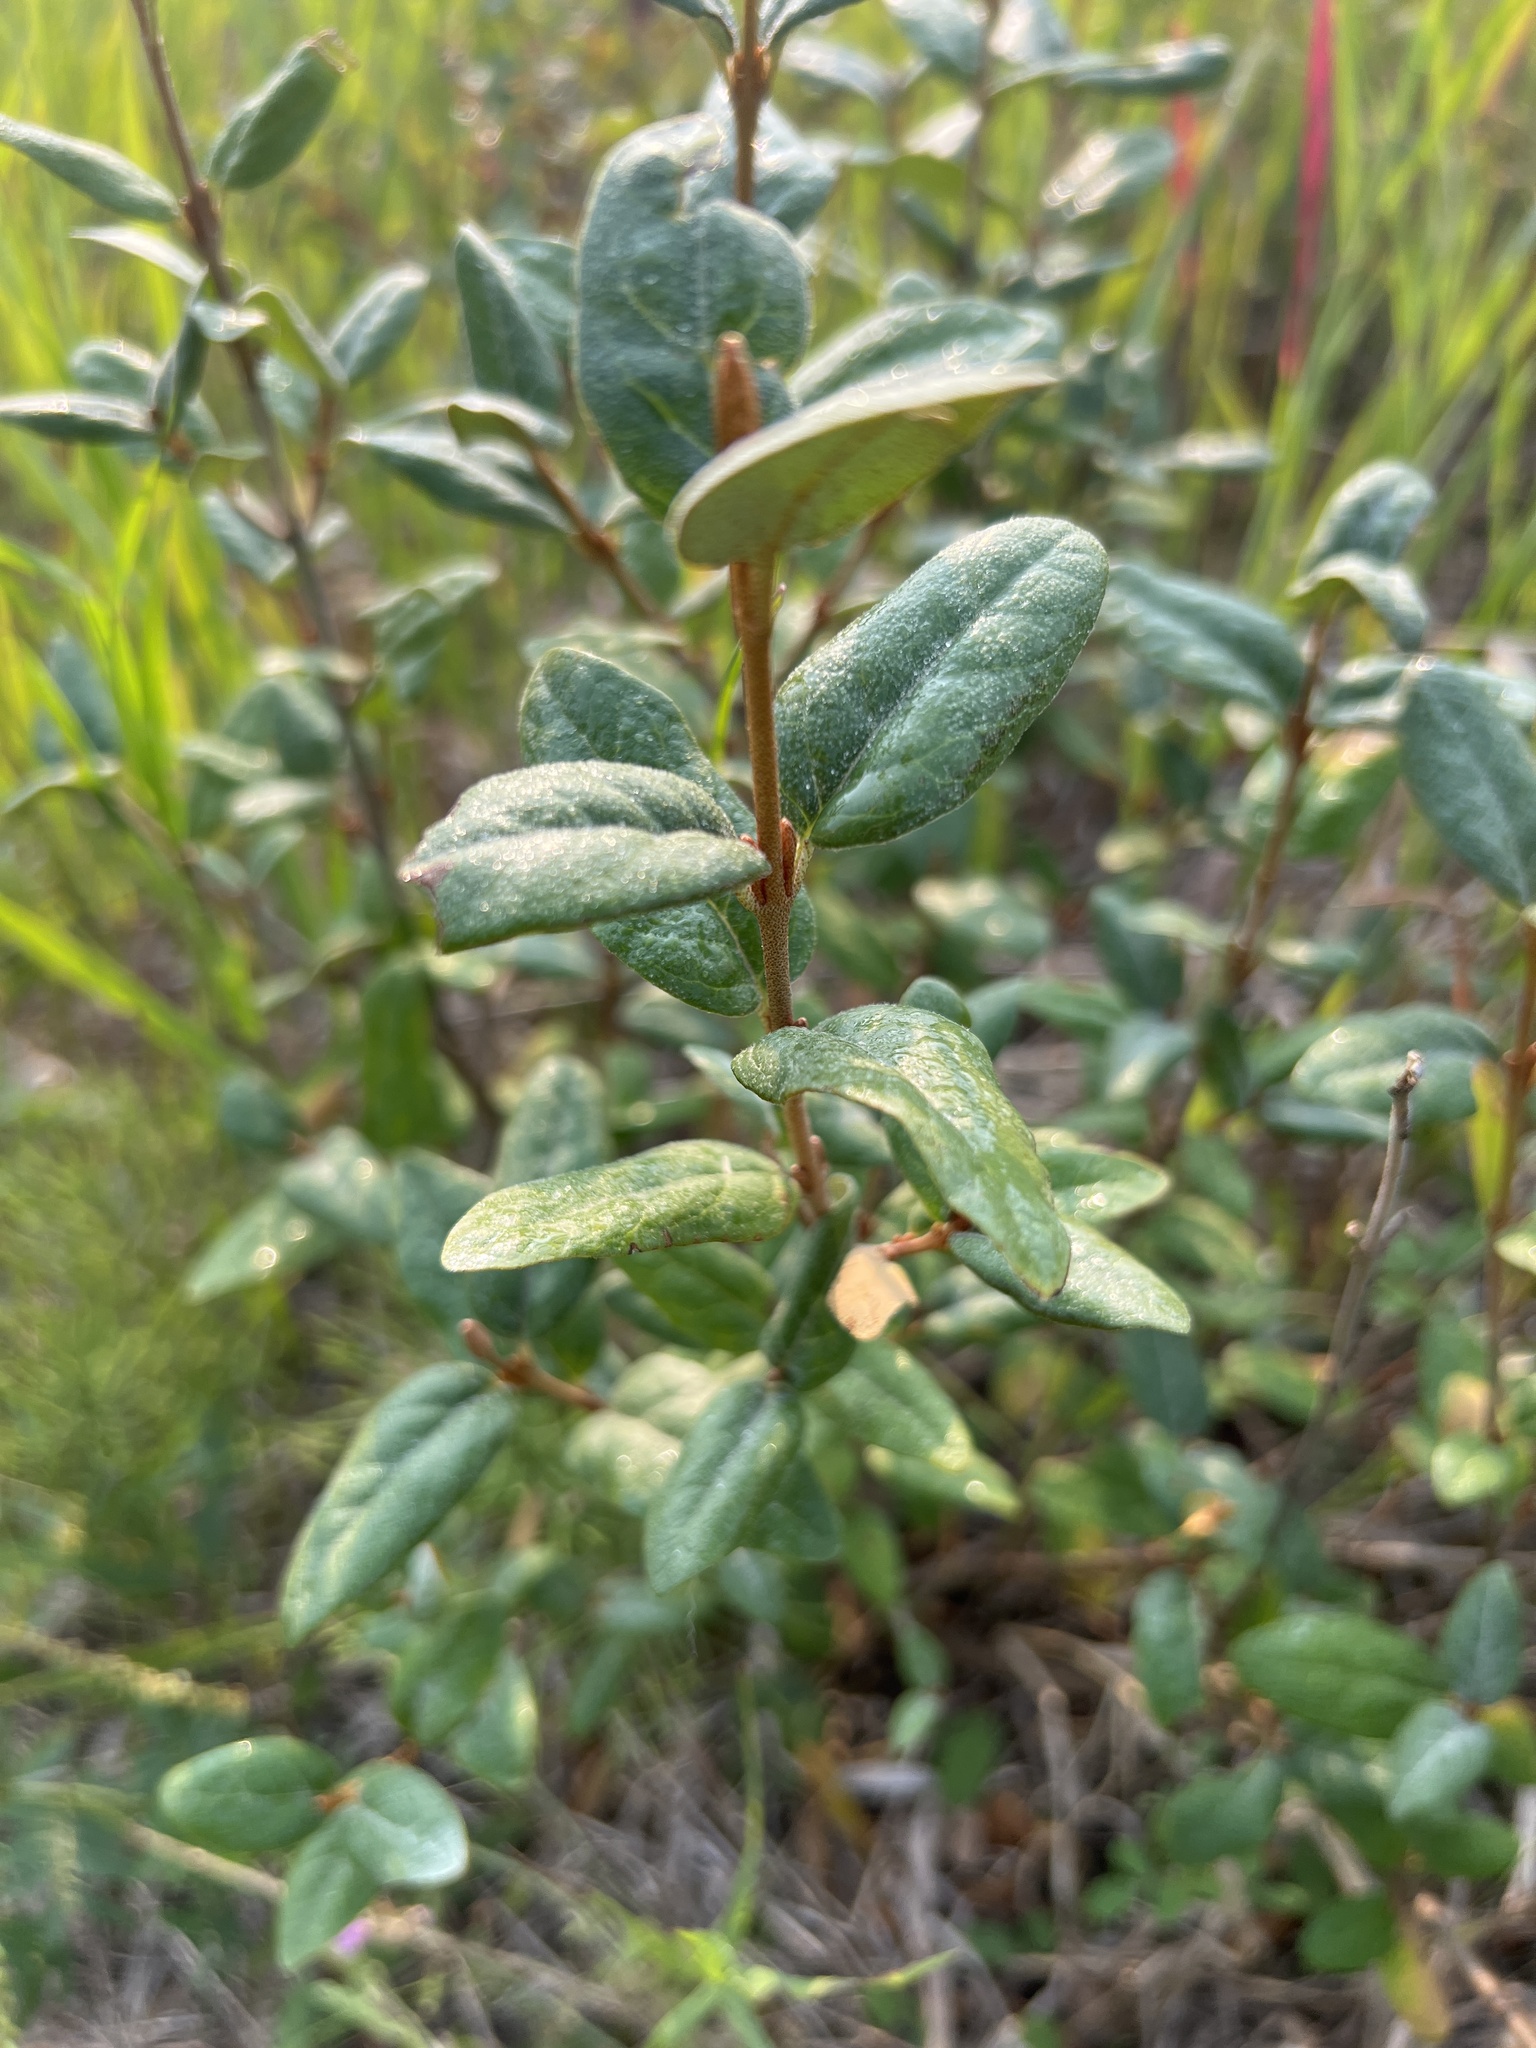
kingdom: Plantae
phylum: Tracheophyta
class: Magnoliopsida
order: Rosales
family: Elaeagnaceae
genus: Shepherdia
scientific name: Shepherdia canadensis
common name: Soapberry
